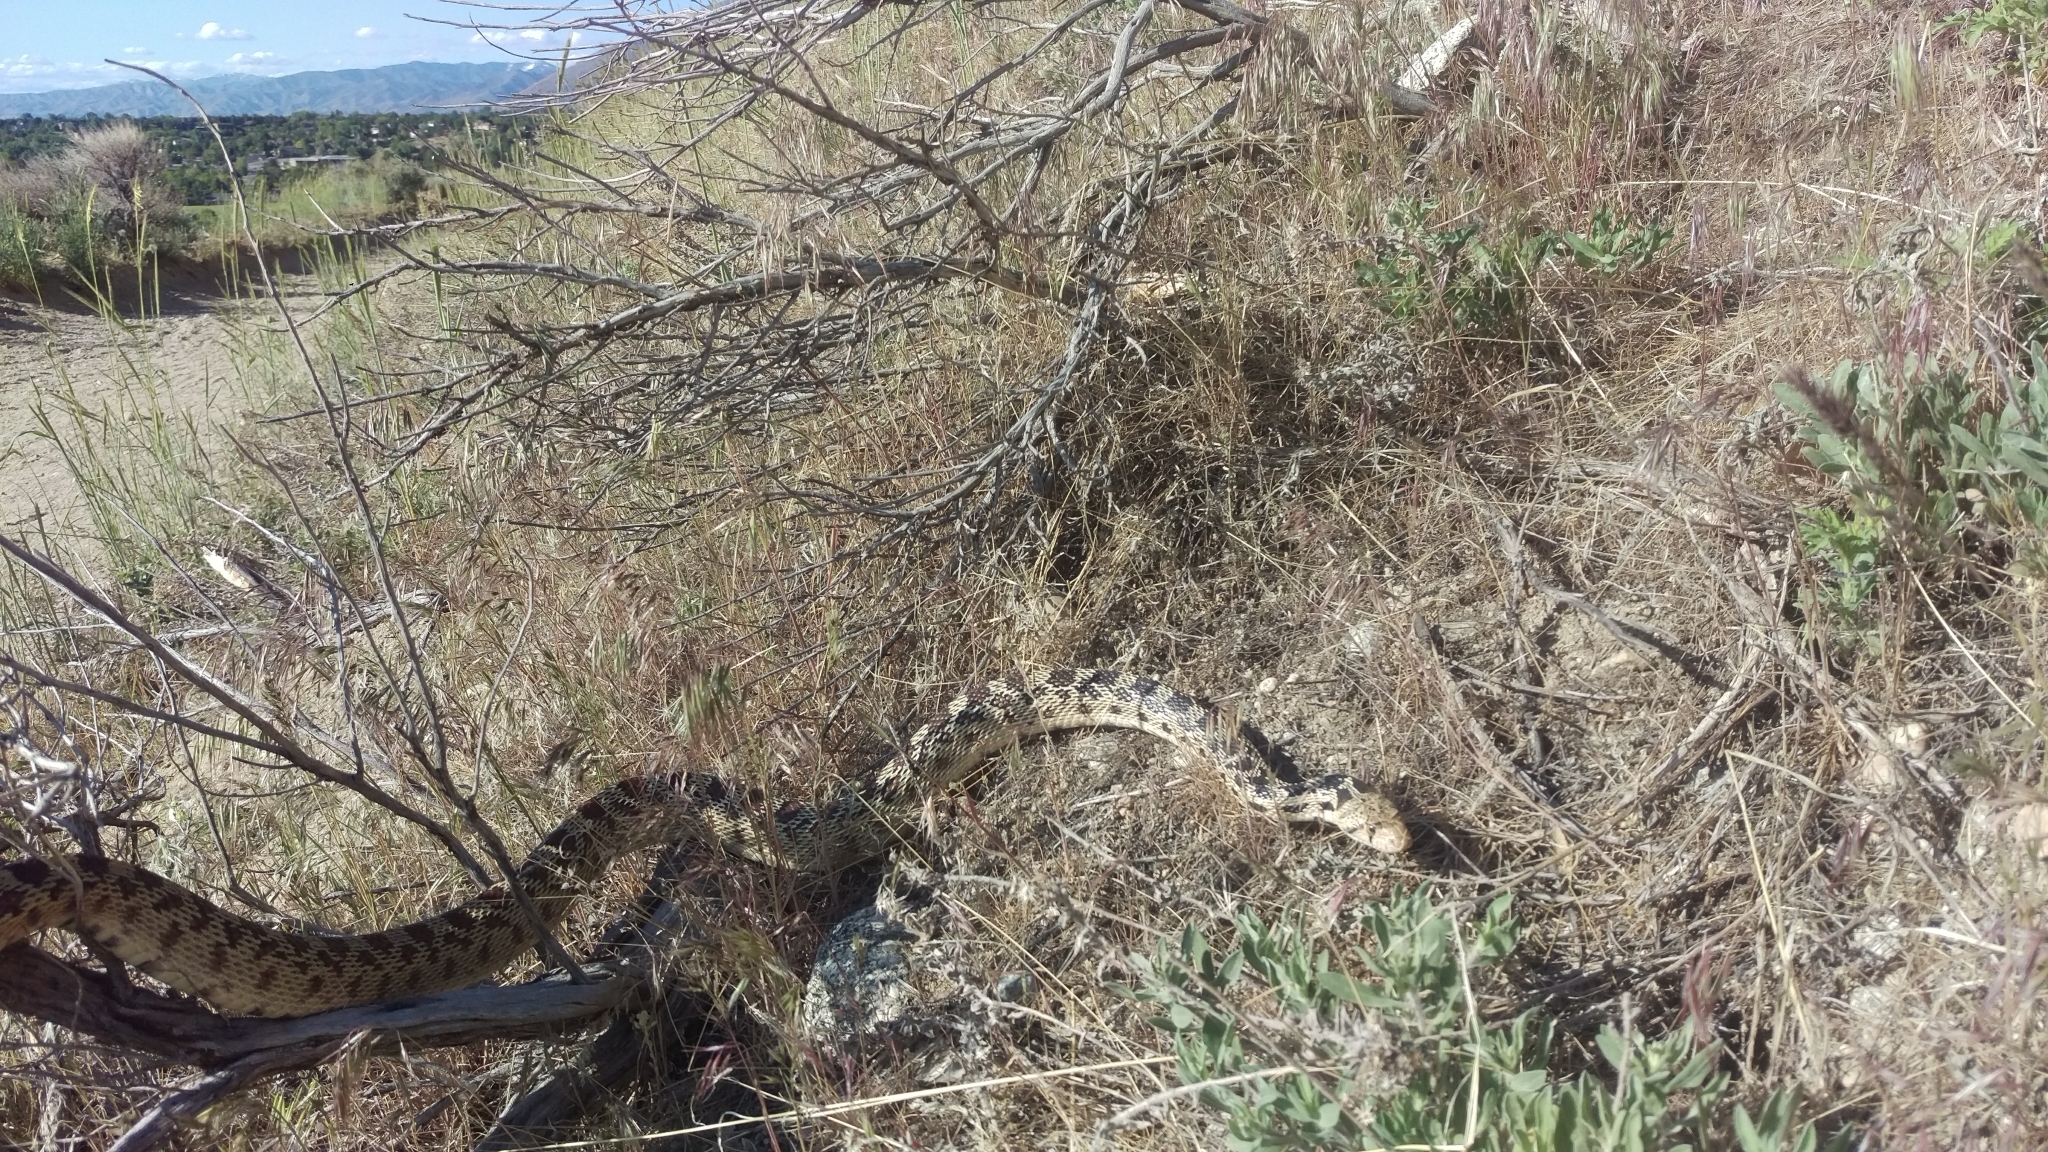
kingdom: Animalia
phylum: Chordata
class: Squamata
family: Colubridae
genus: Pituophis
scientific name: Pituophis catenifer
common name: Gopher snake
